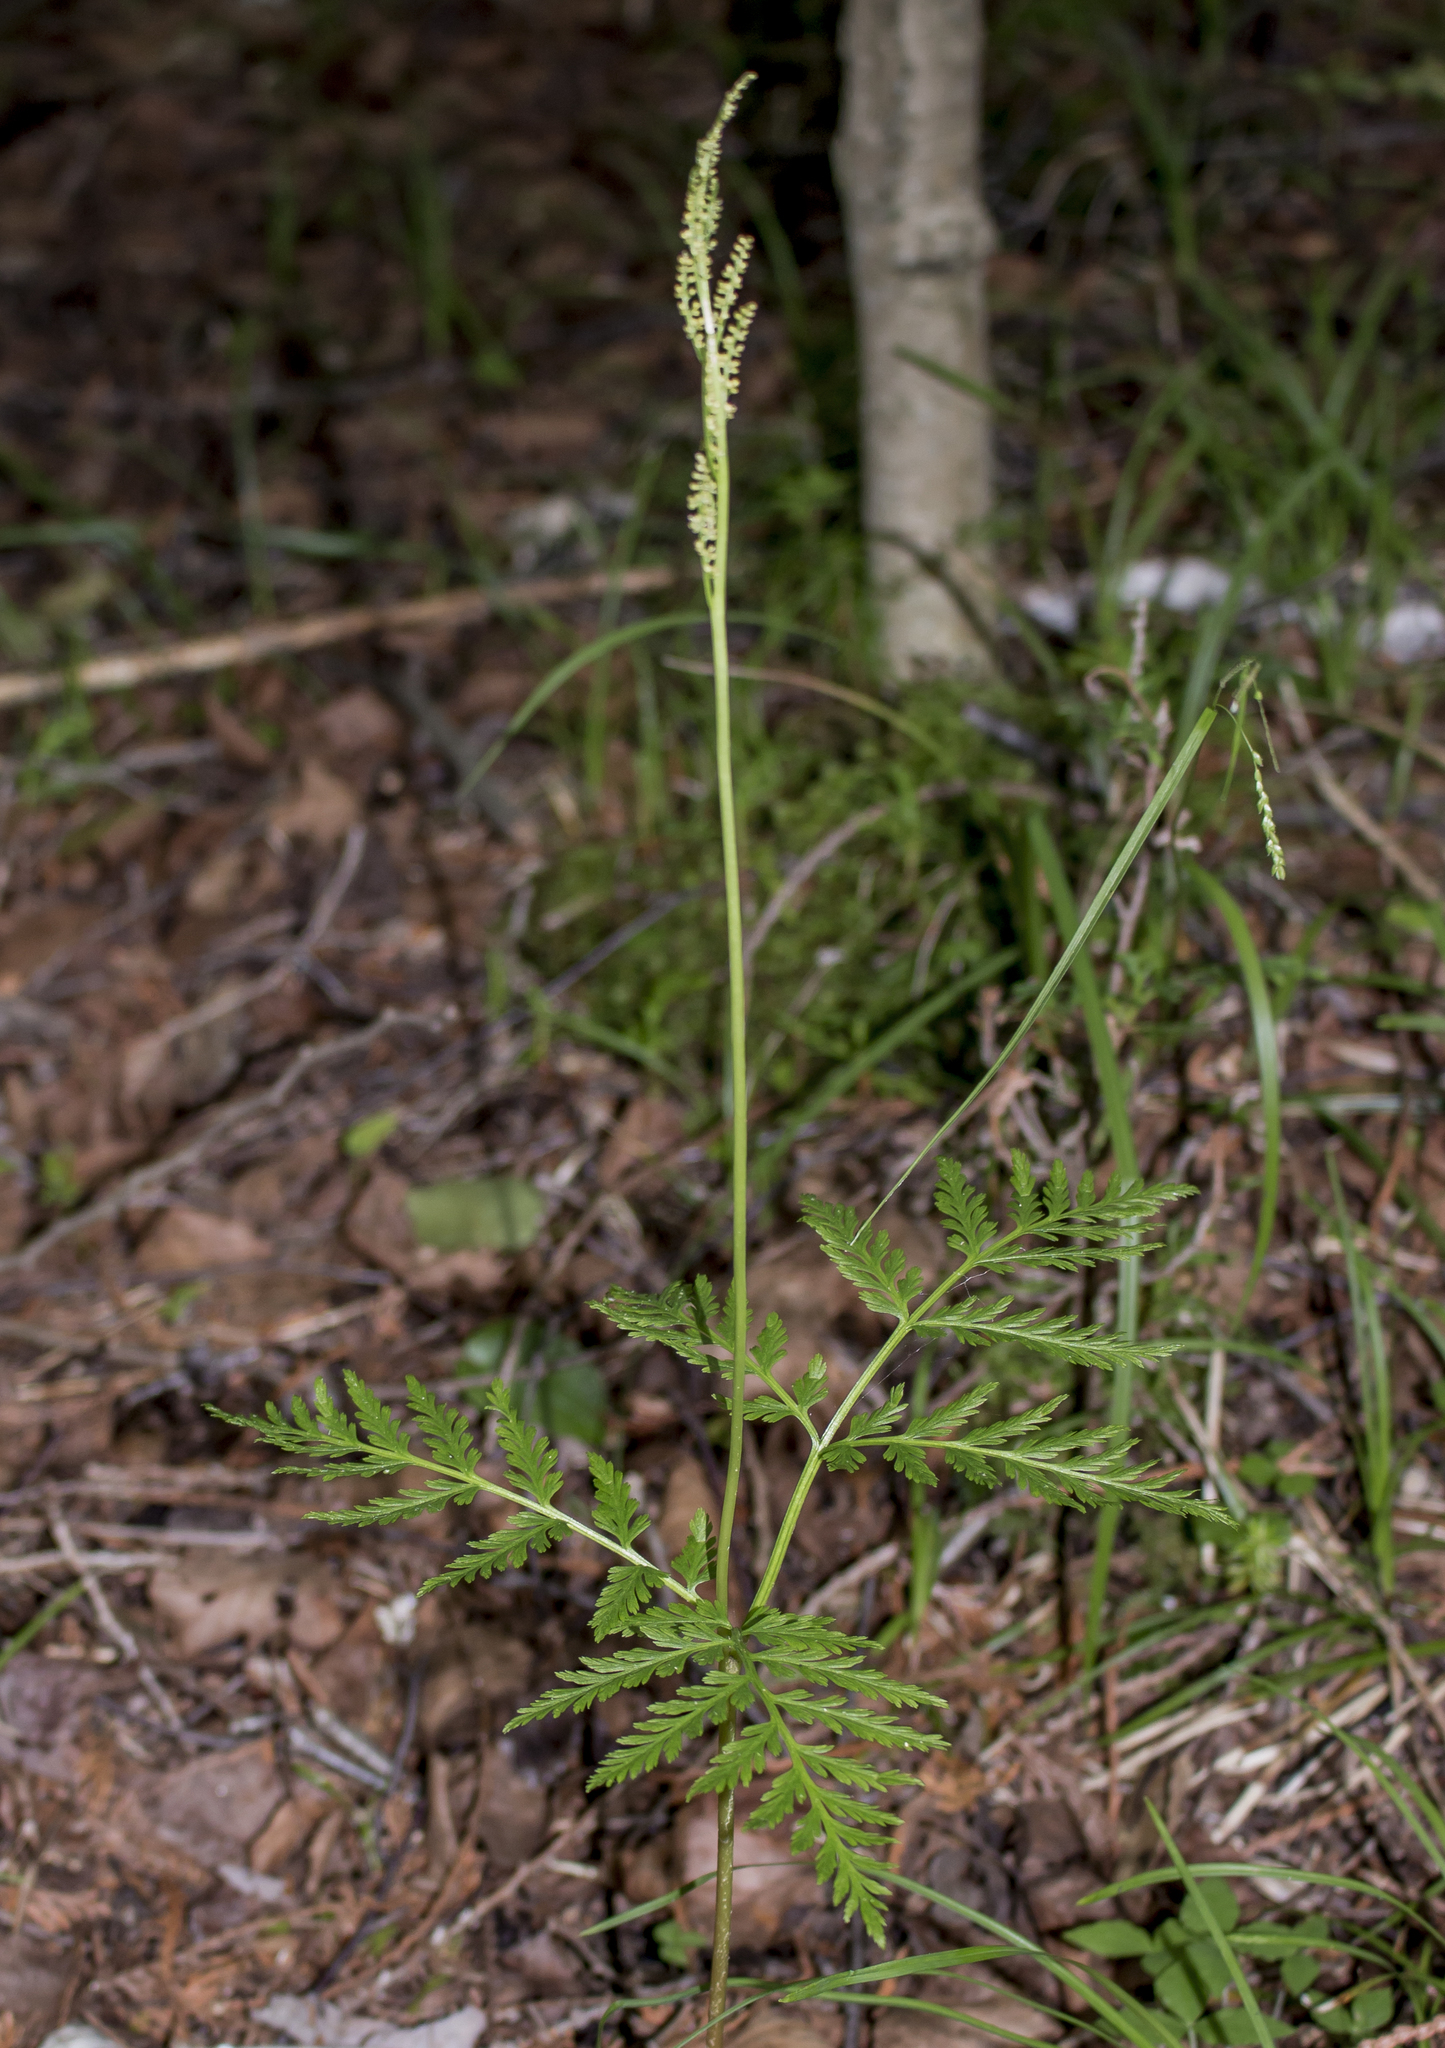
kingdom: Plantae
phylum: Tracheophyta
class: Polypodiopsida
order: Ophioglossales
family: Ophioglossaceae
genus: Botrypus
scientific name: Botrypus virginianus
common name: Common grapefern
